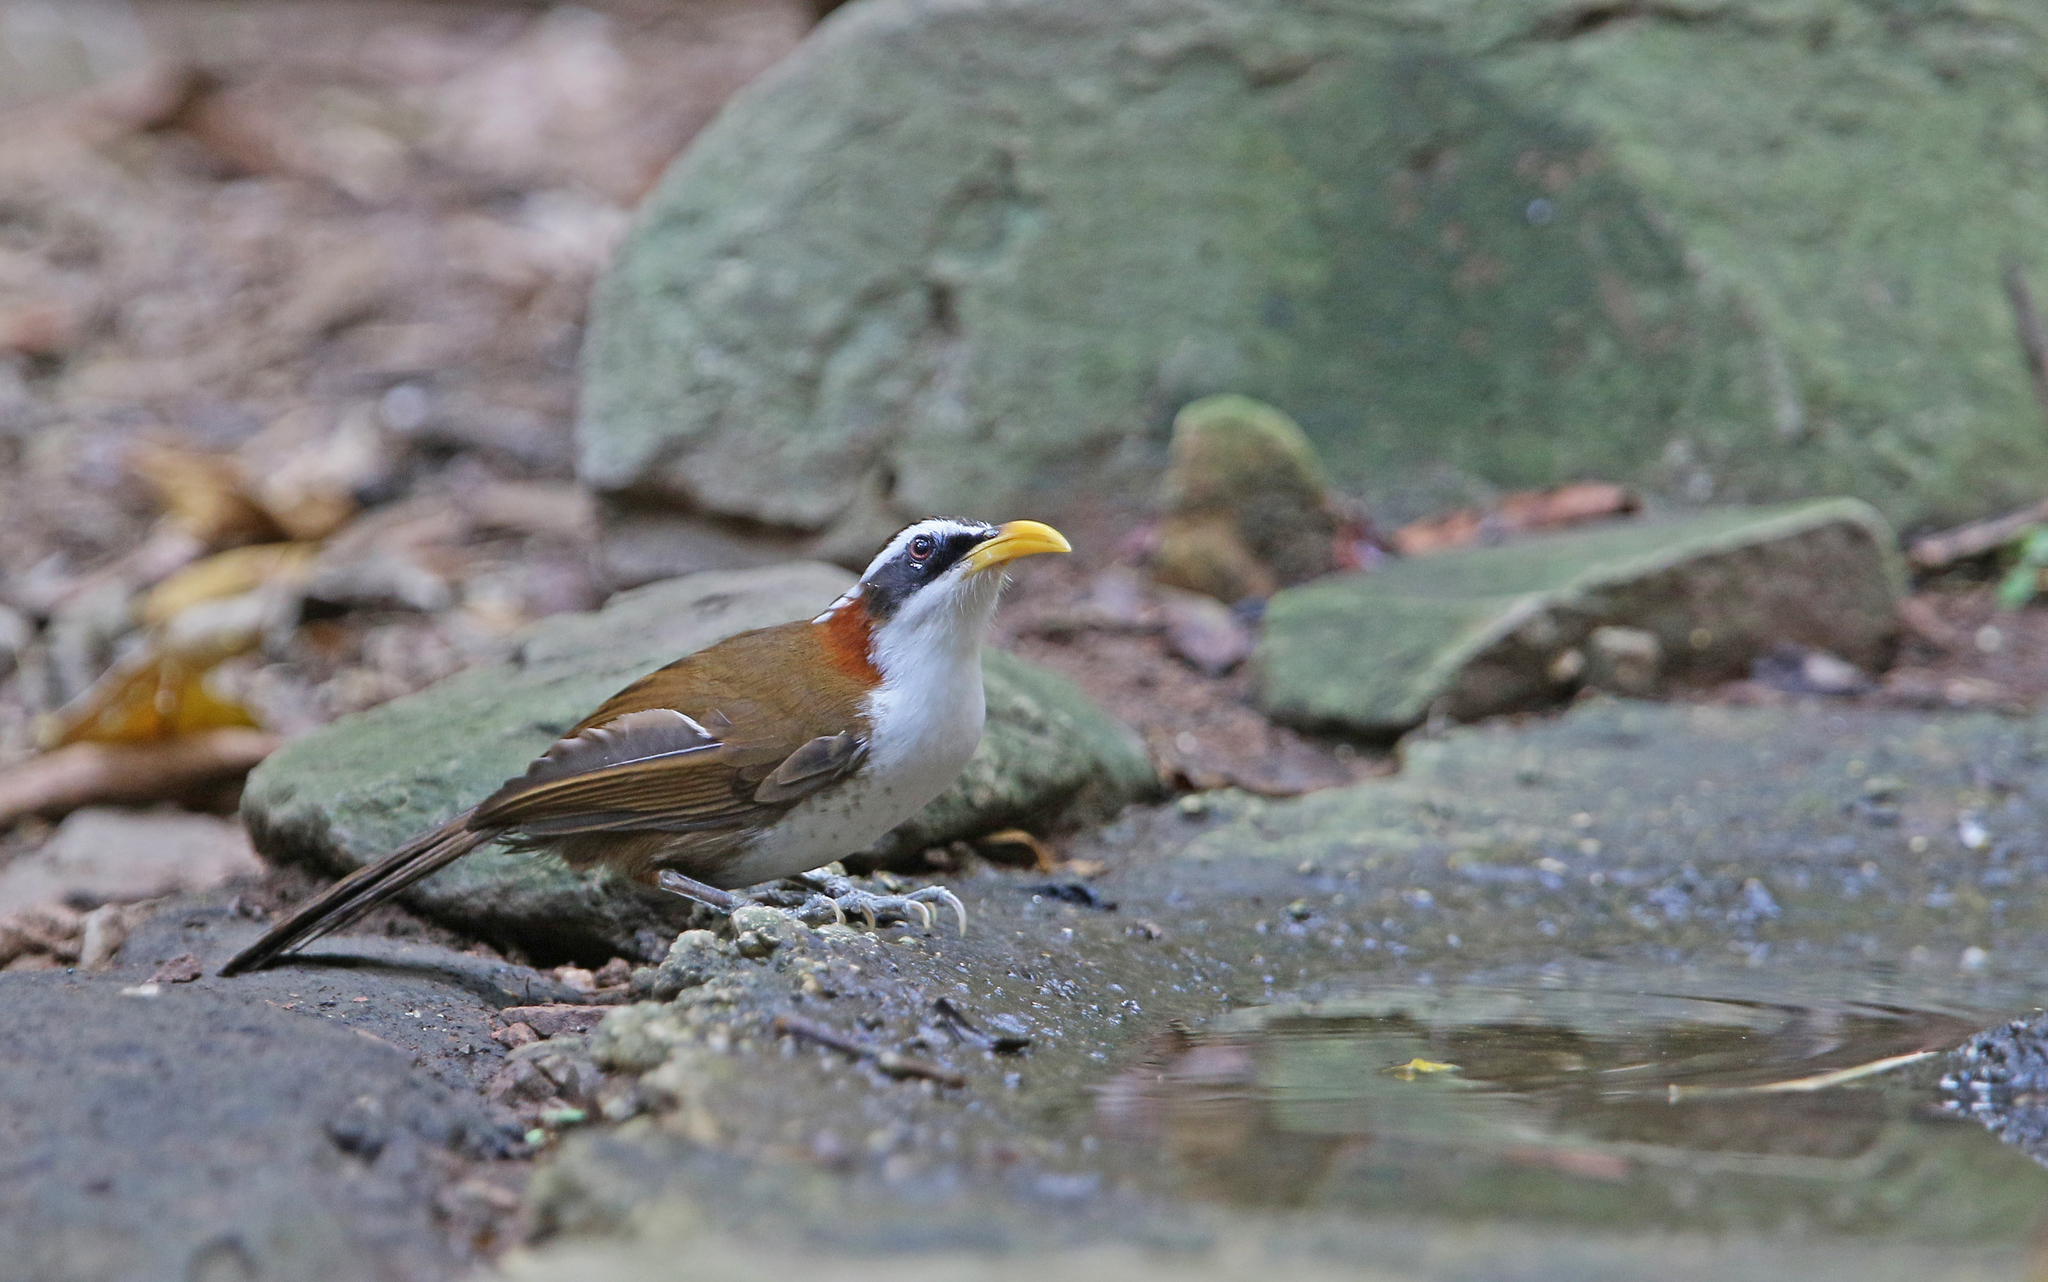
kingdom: Animalia
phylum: Chordata
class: Aves
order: Passeriformes
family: Timaliidae
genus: Pomatorhinus
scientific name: Pomatorhinus schisticeps
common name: White-browed scimitar babbler
